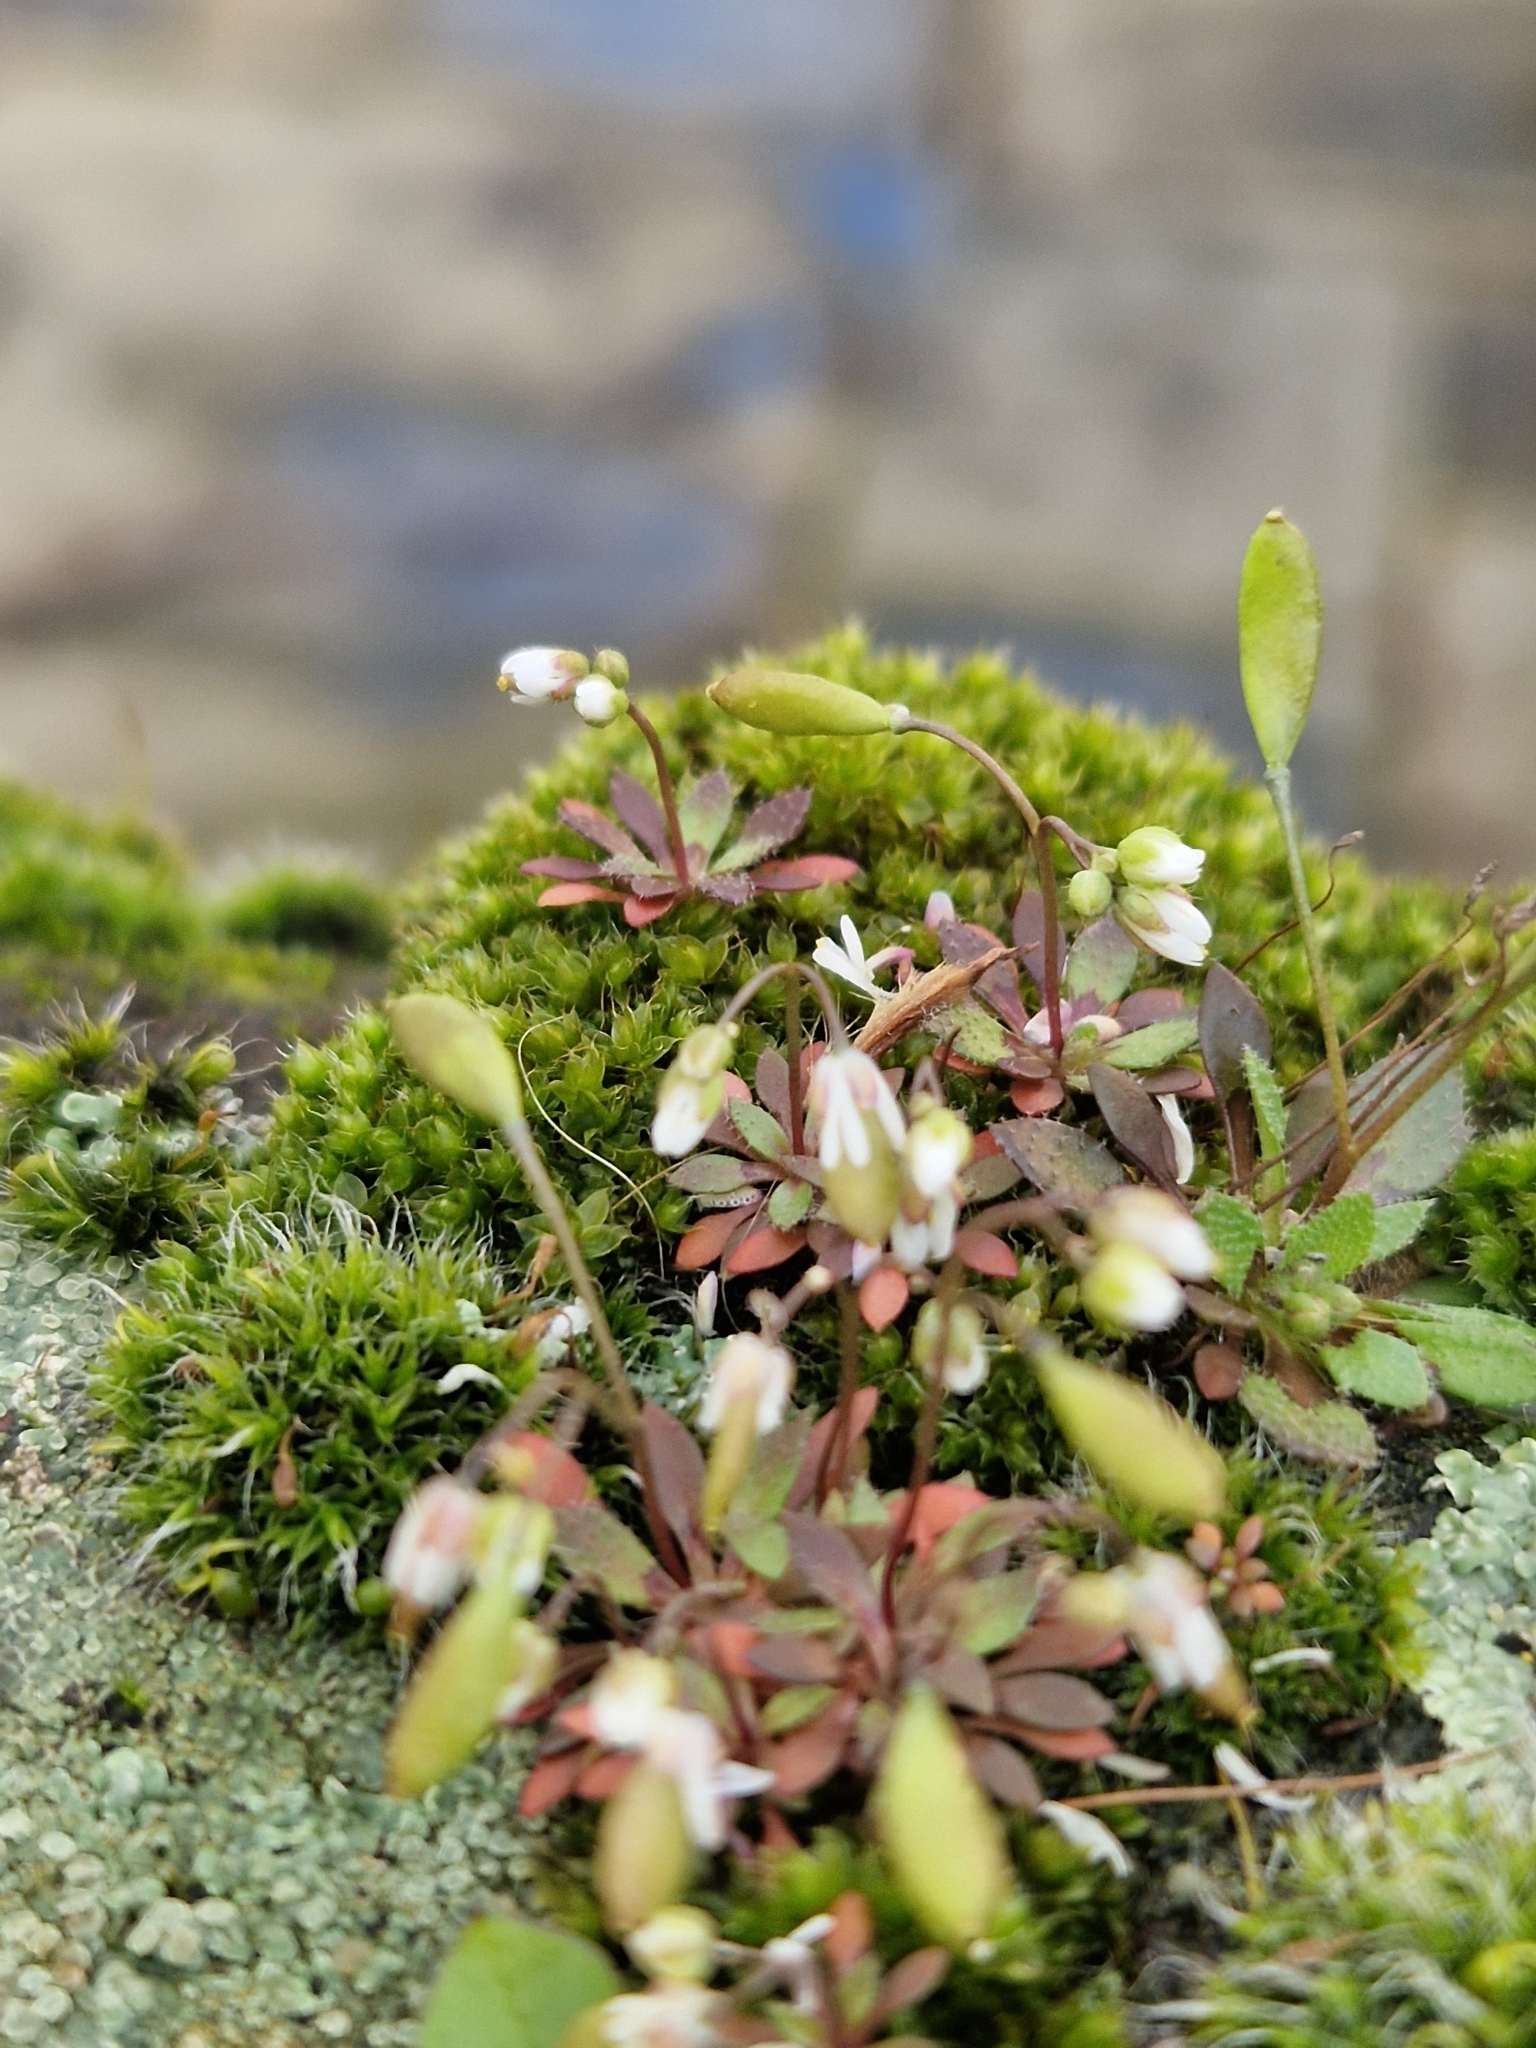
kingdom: Plantae
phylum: Tracheophyta
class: Magnoliopsida
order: Brassicales
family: Brassicaceae
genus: Draba
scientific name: Draba verna
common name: Spring draba
